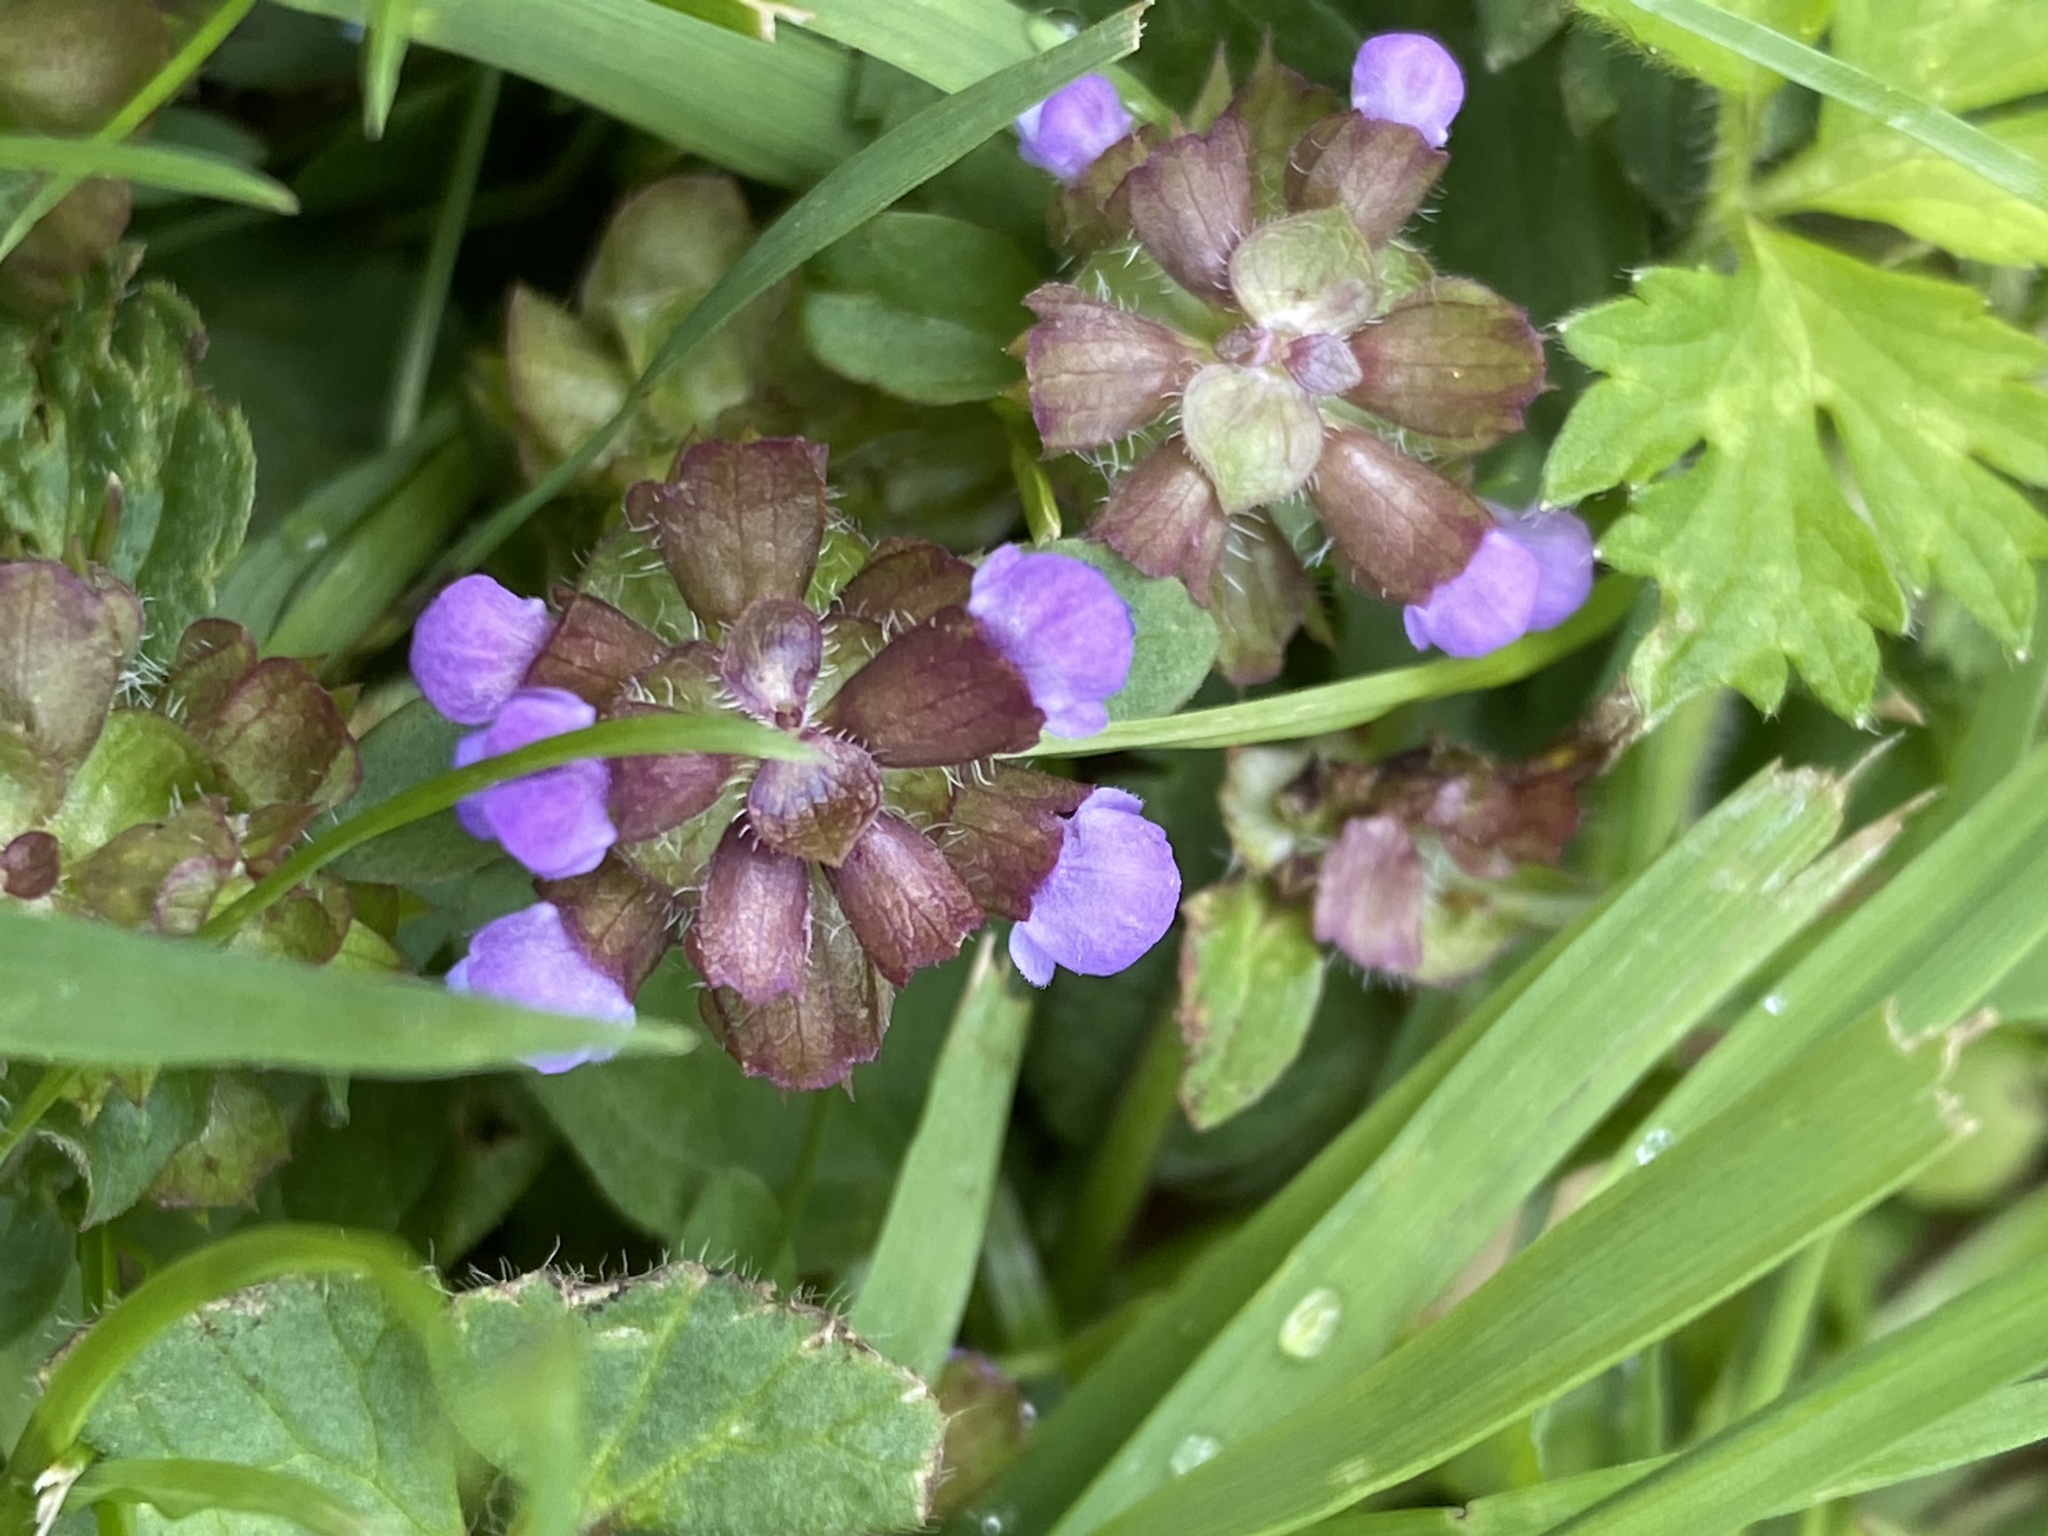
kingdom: Plantae
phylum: Tracheophyta
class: Magnoliopsida
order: Lamiales
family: Lamiaceae
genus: Prunella
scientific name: Prunella vulgaris
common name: Heal-all
